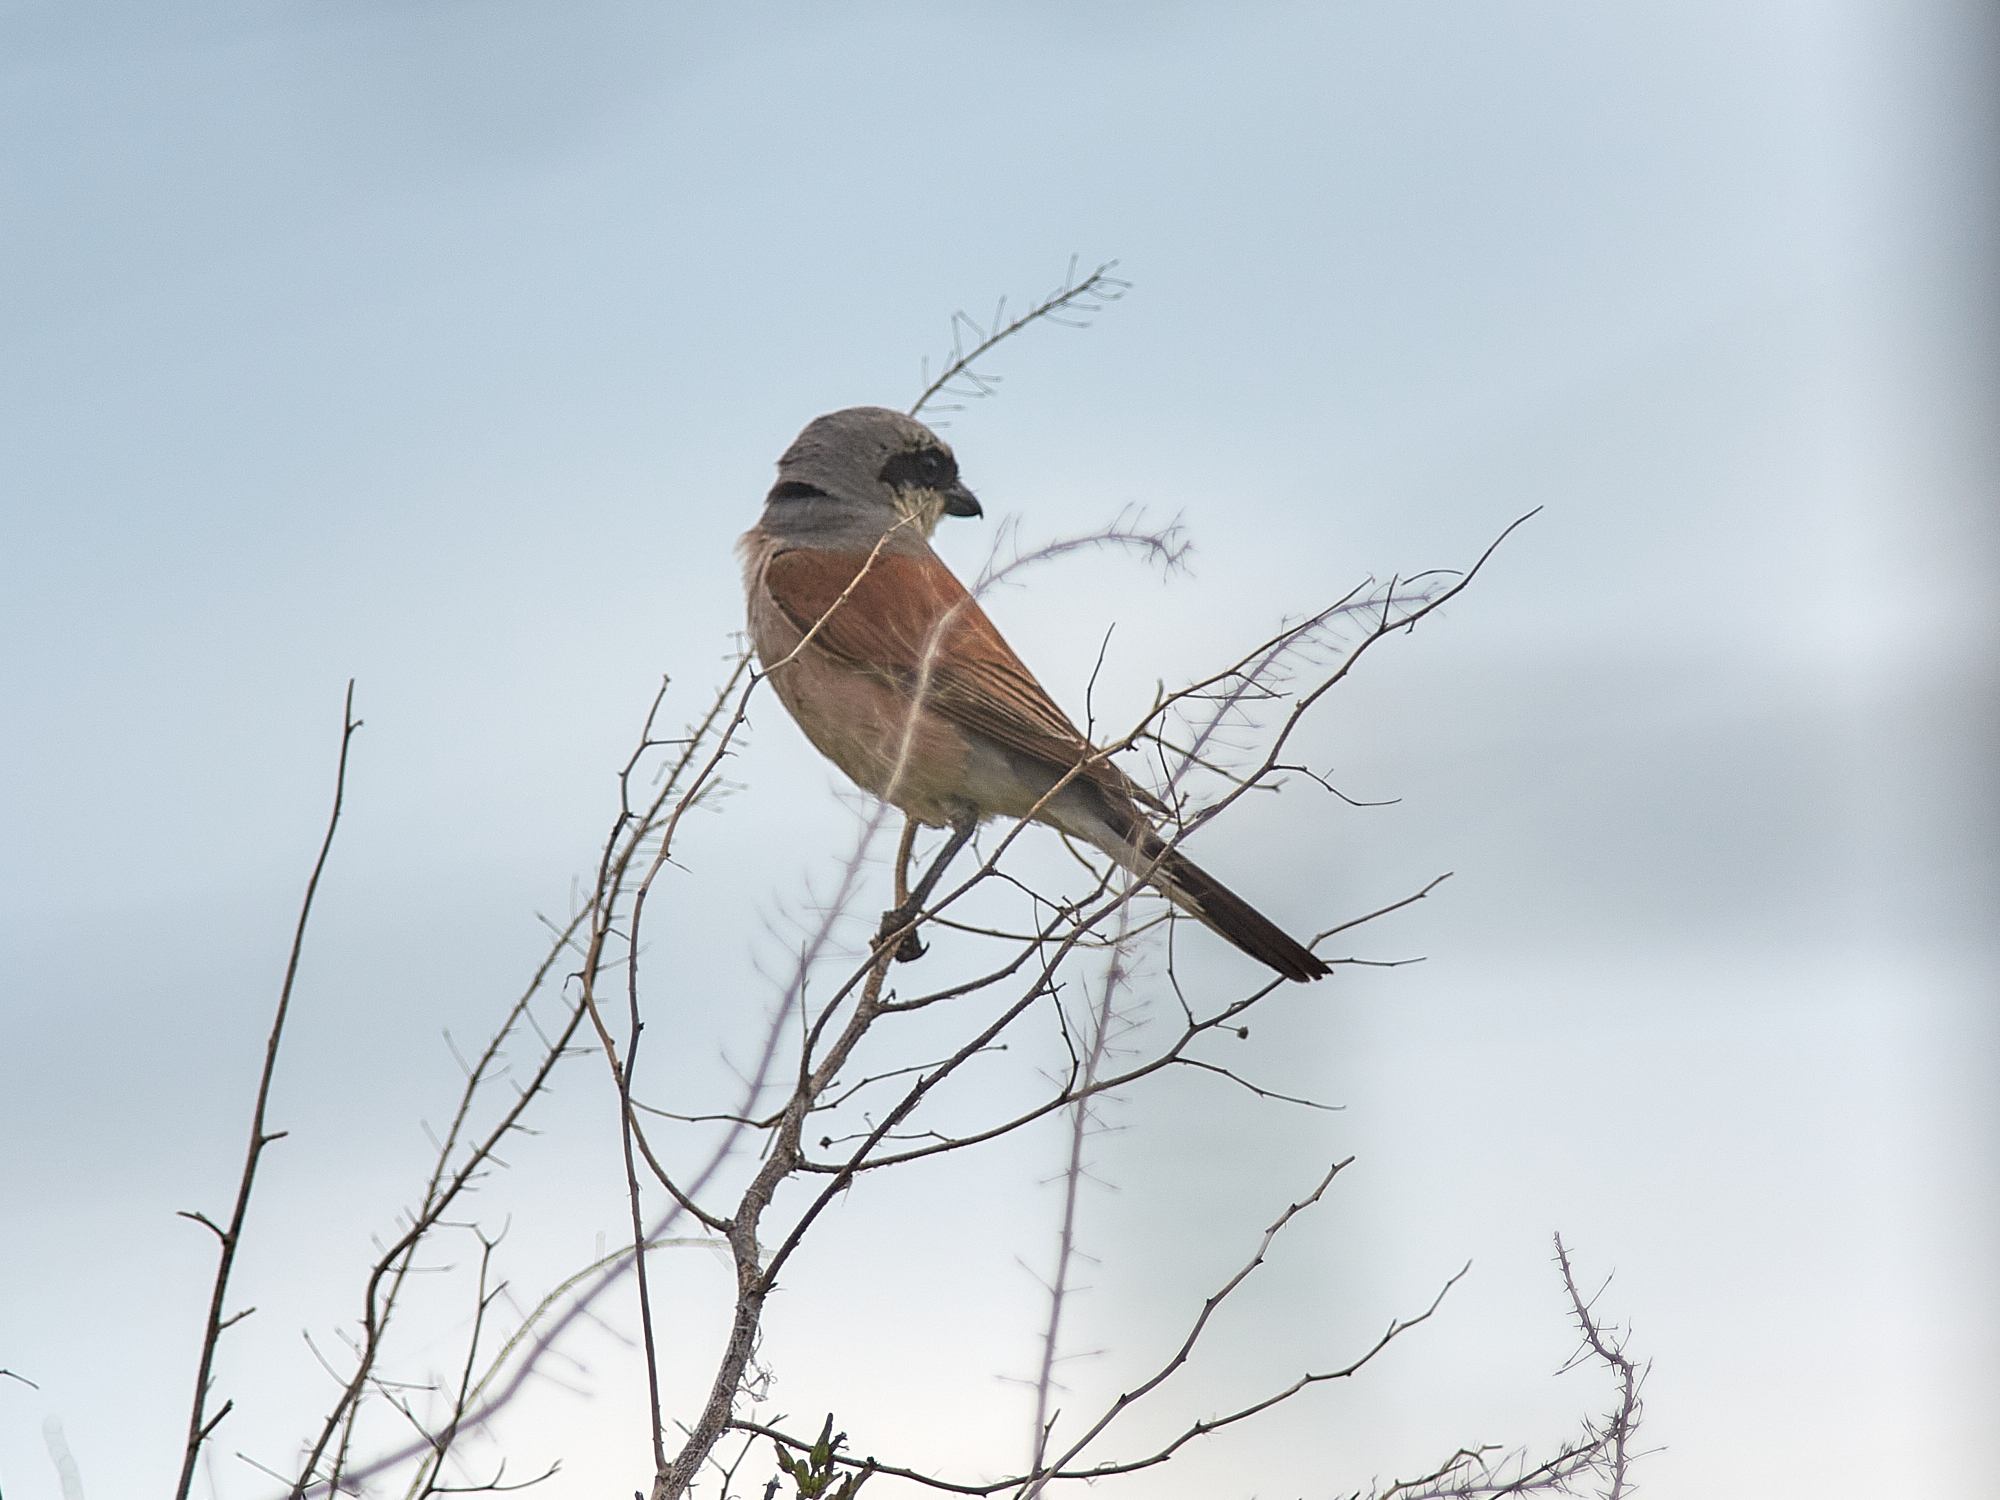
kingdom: Animalia
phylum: Chordata
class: Aves
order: Passeriformes
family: Laniidae
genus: Lanius
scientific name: Lanius collurio
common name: Red-backed shrike
